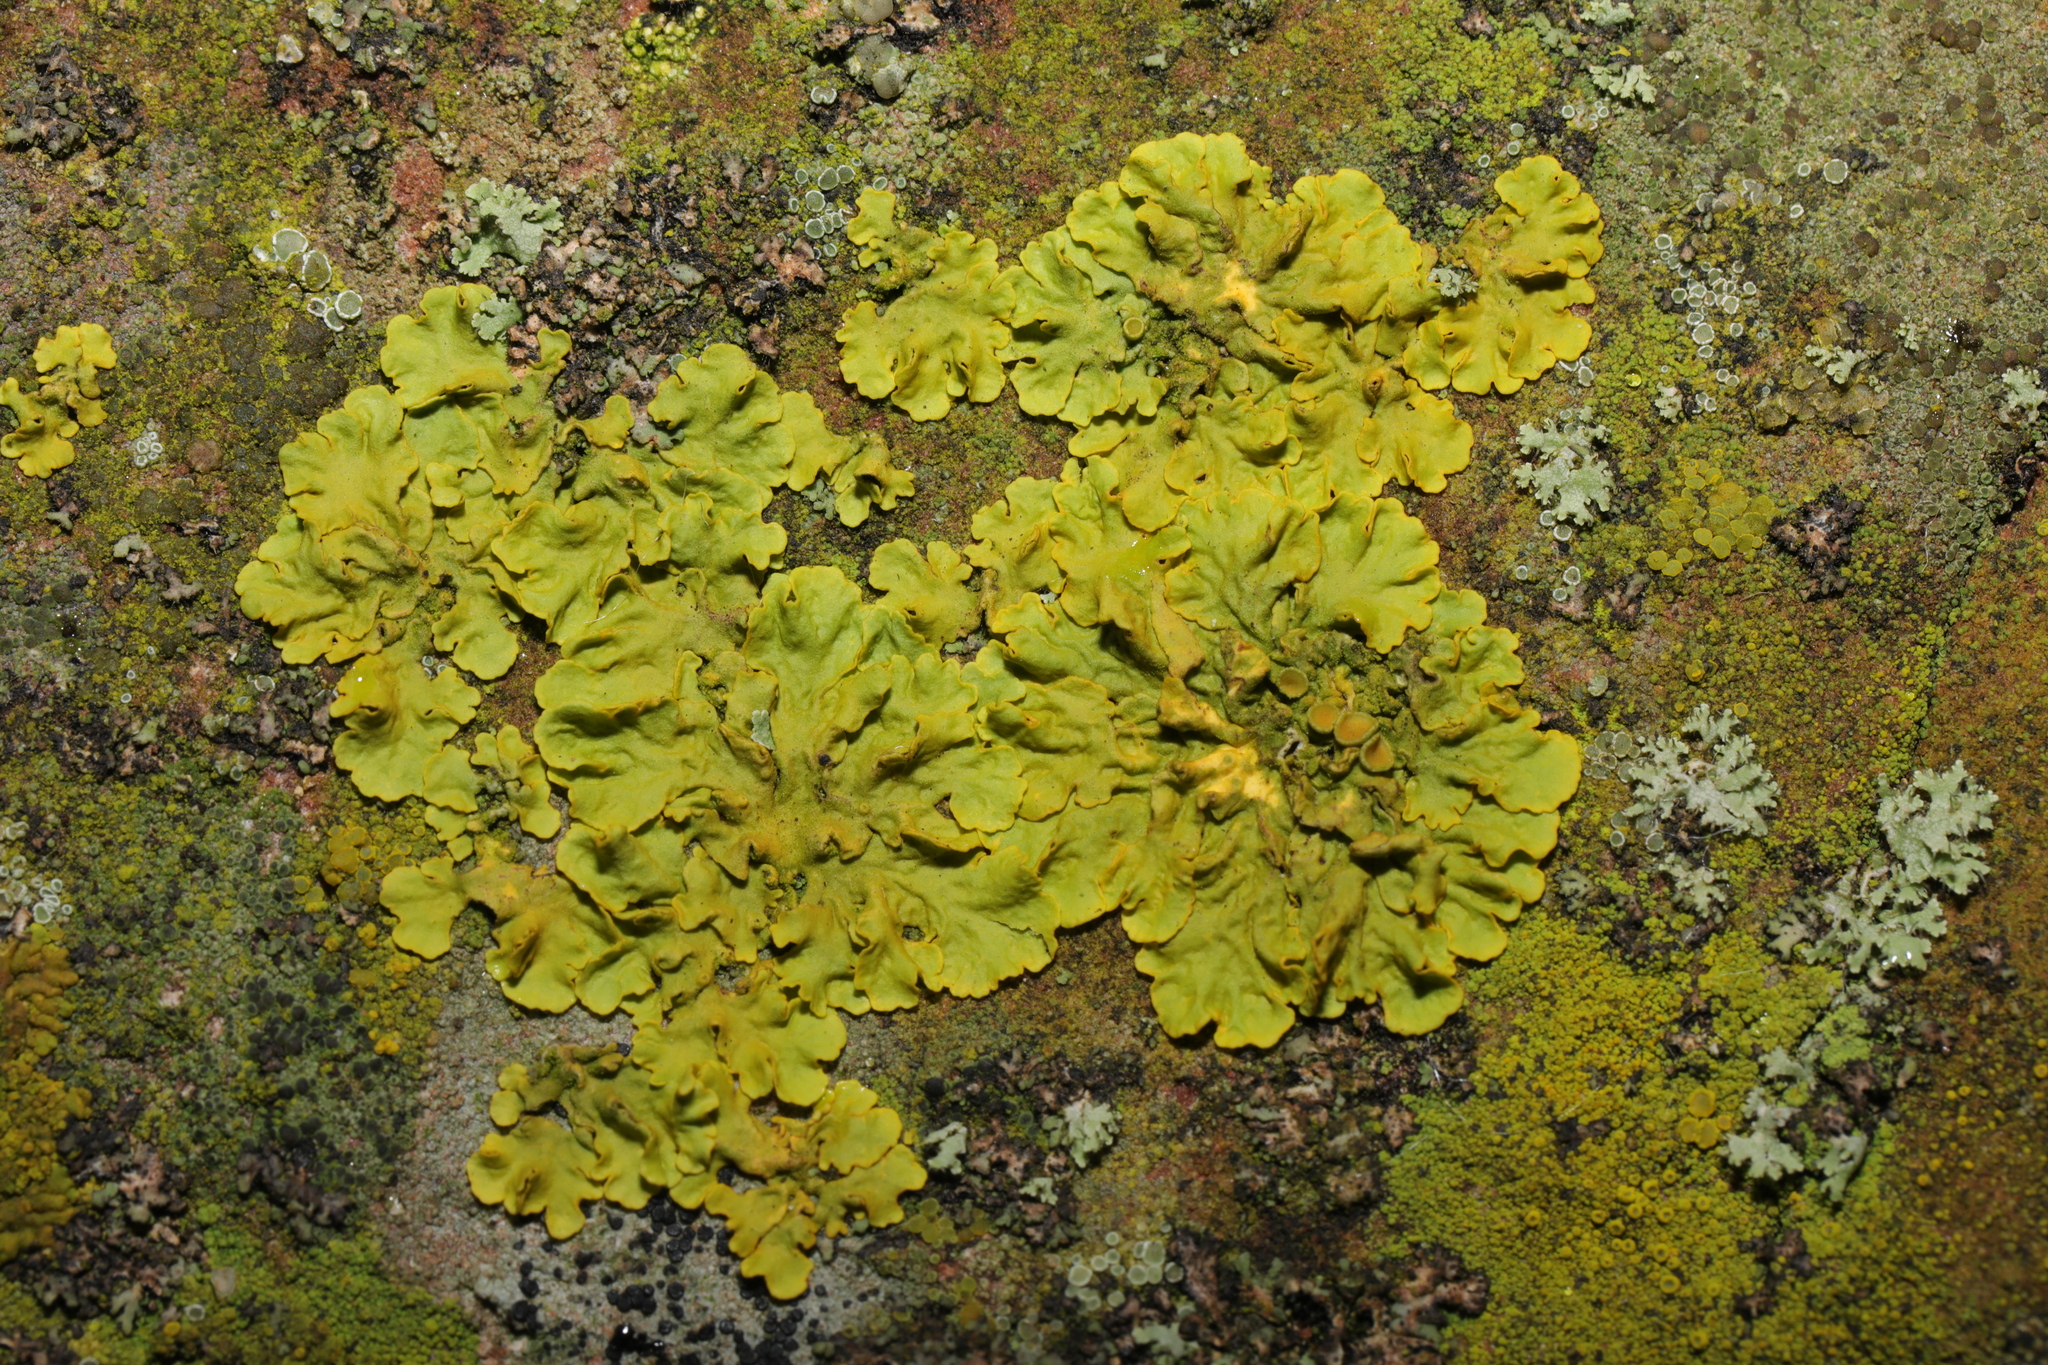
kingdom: Fungi
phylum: Ascomycota
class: Lecanoromycetes
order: Teloschistales
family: Teloschistaceae
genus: Xanthoria
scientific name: Xanthoria parietina
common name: Common orange lichen
